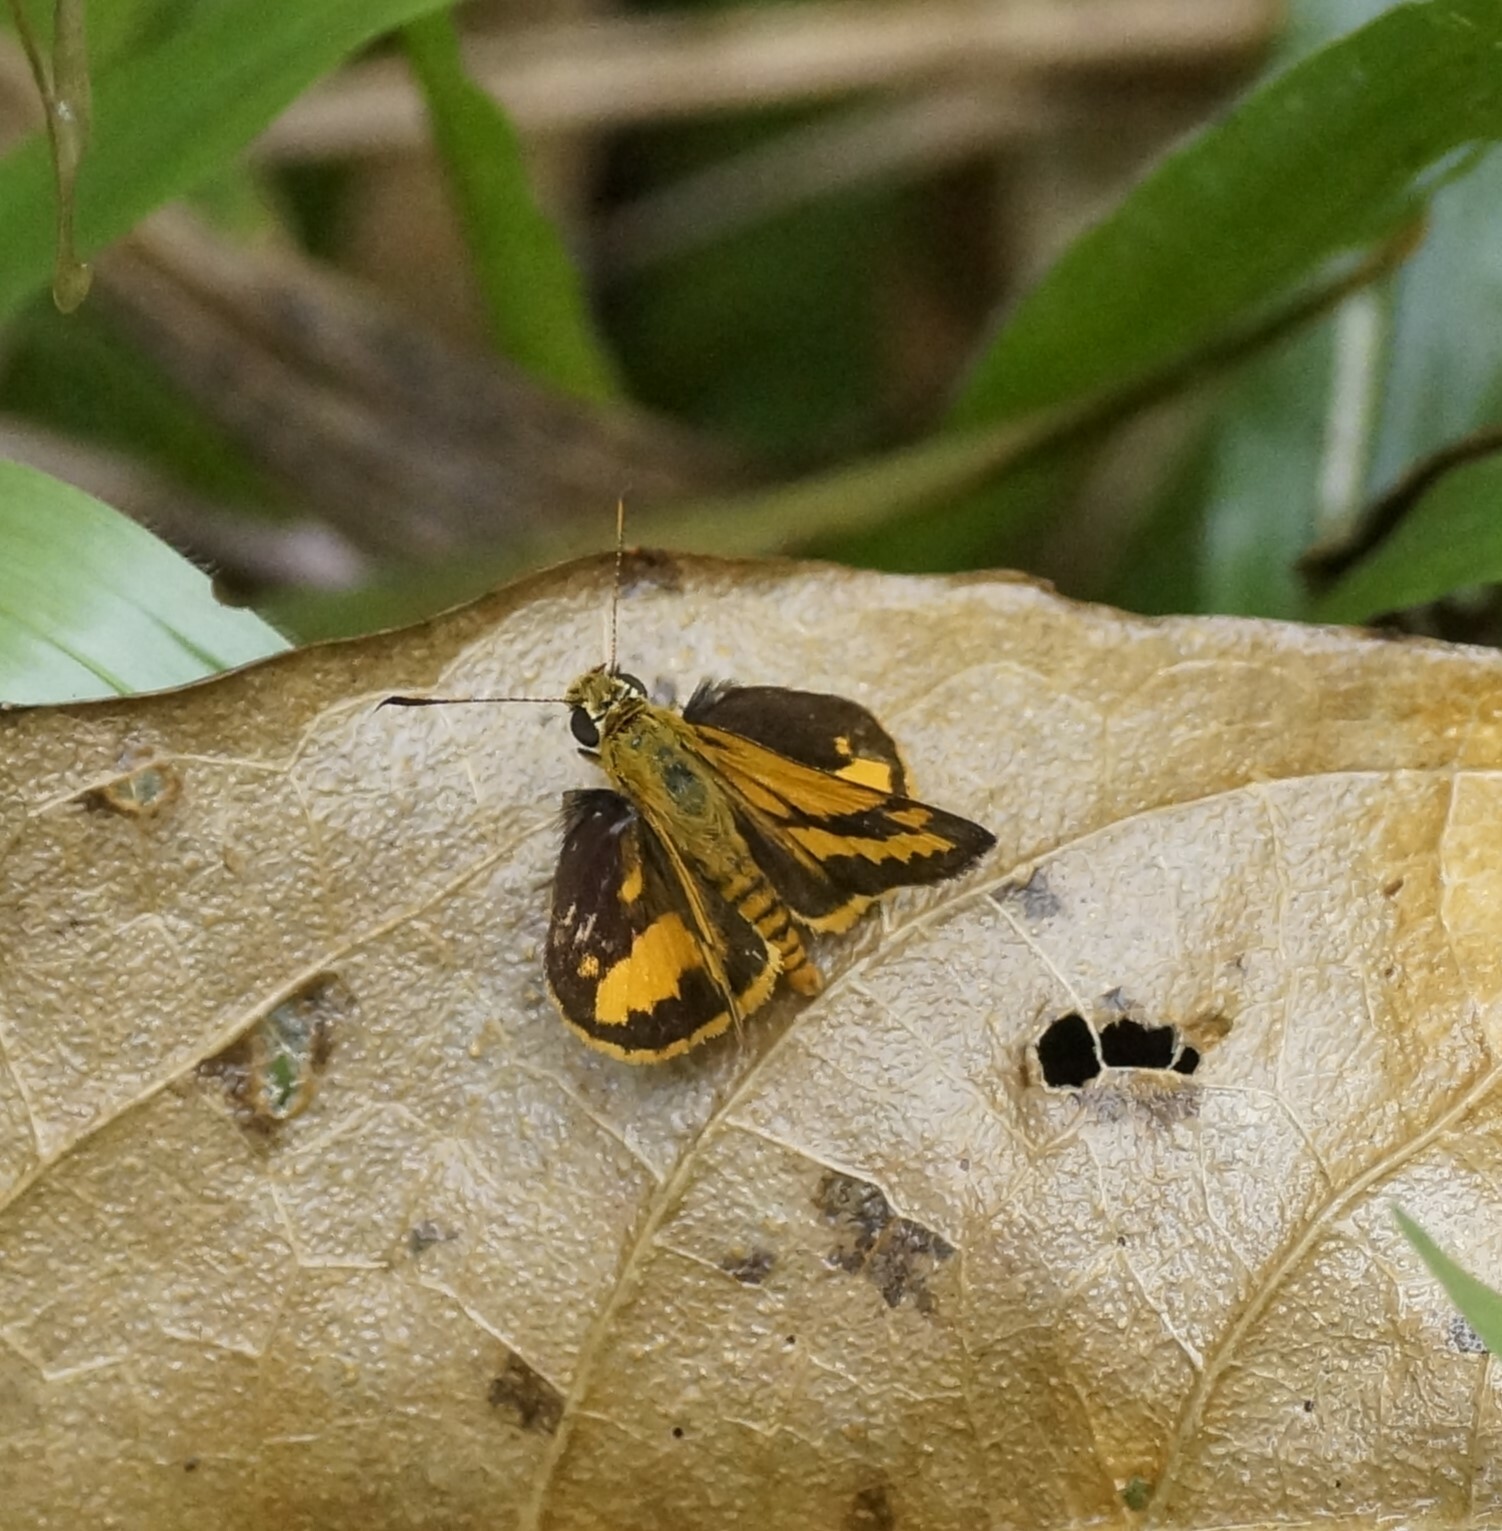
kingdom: Animalia
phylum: Arthropoda
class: Insecta
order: Lepidoptera
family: Hesperiidae
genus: Suniana
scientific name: Suniana sunias
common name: Wide-brand grass-dart
